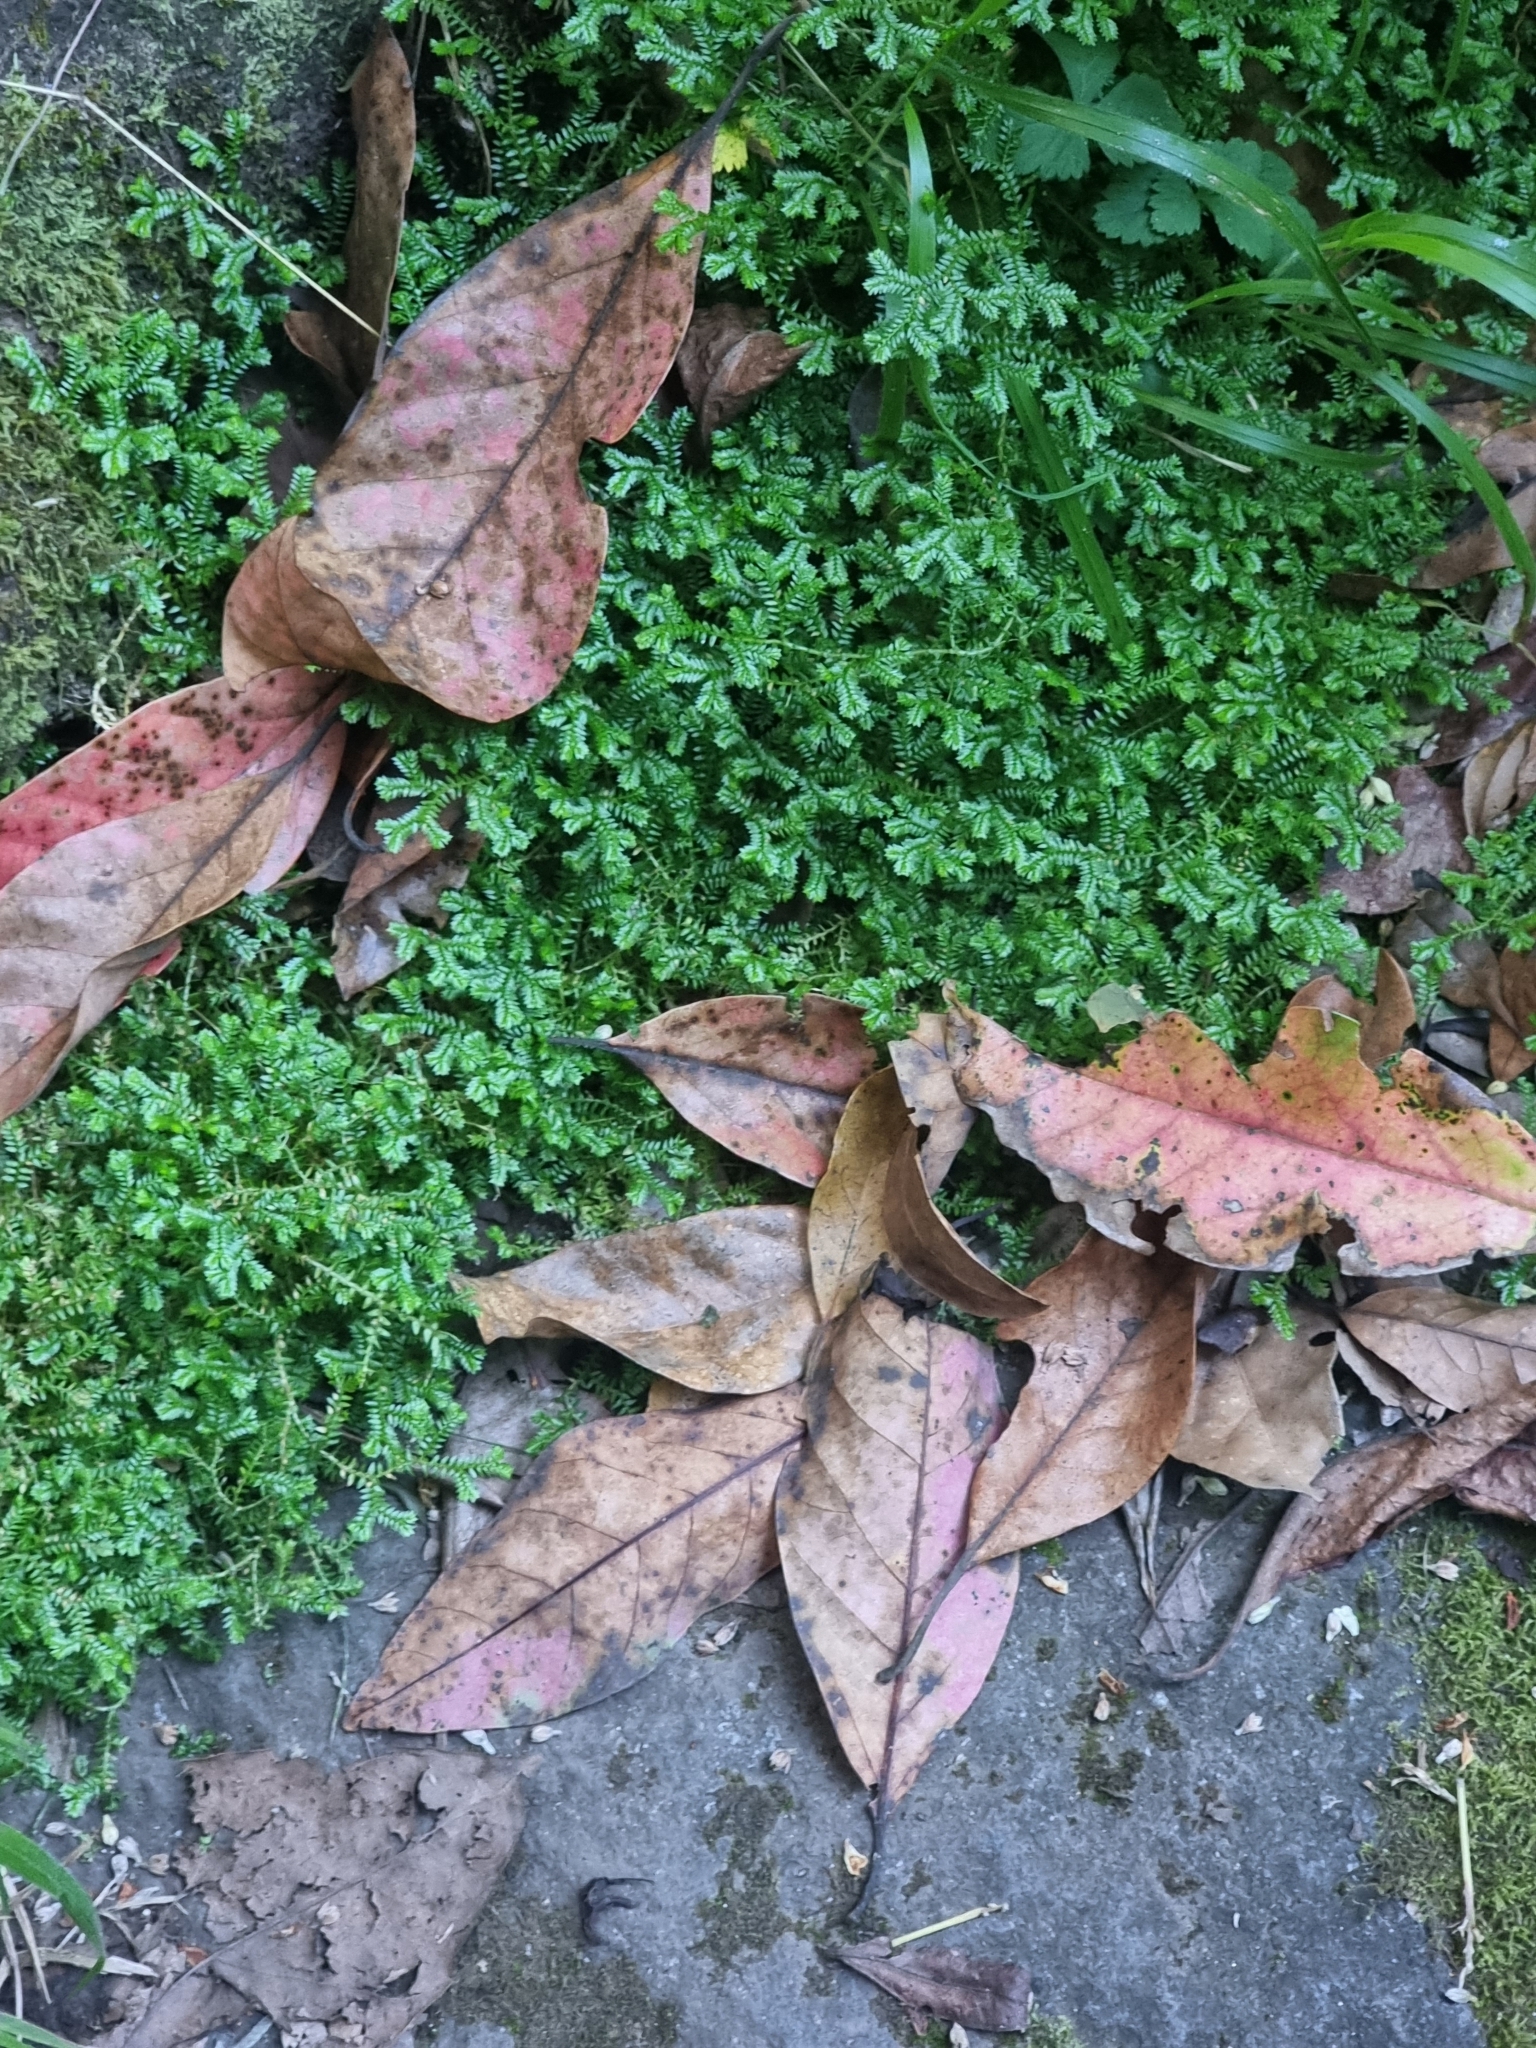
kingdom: Plantae
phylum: Tracheophyta
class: Magnoliopsida
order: Laurales
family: Lauraceae
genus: Persea
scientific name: Persea indica
